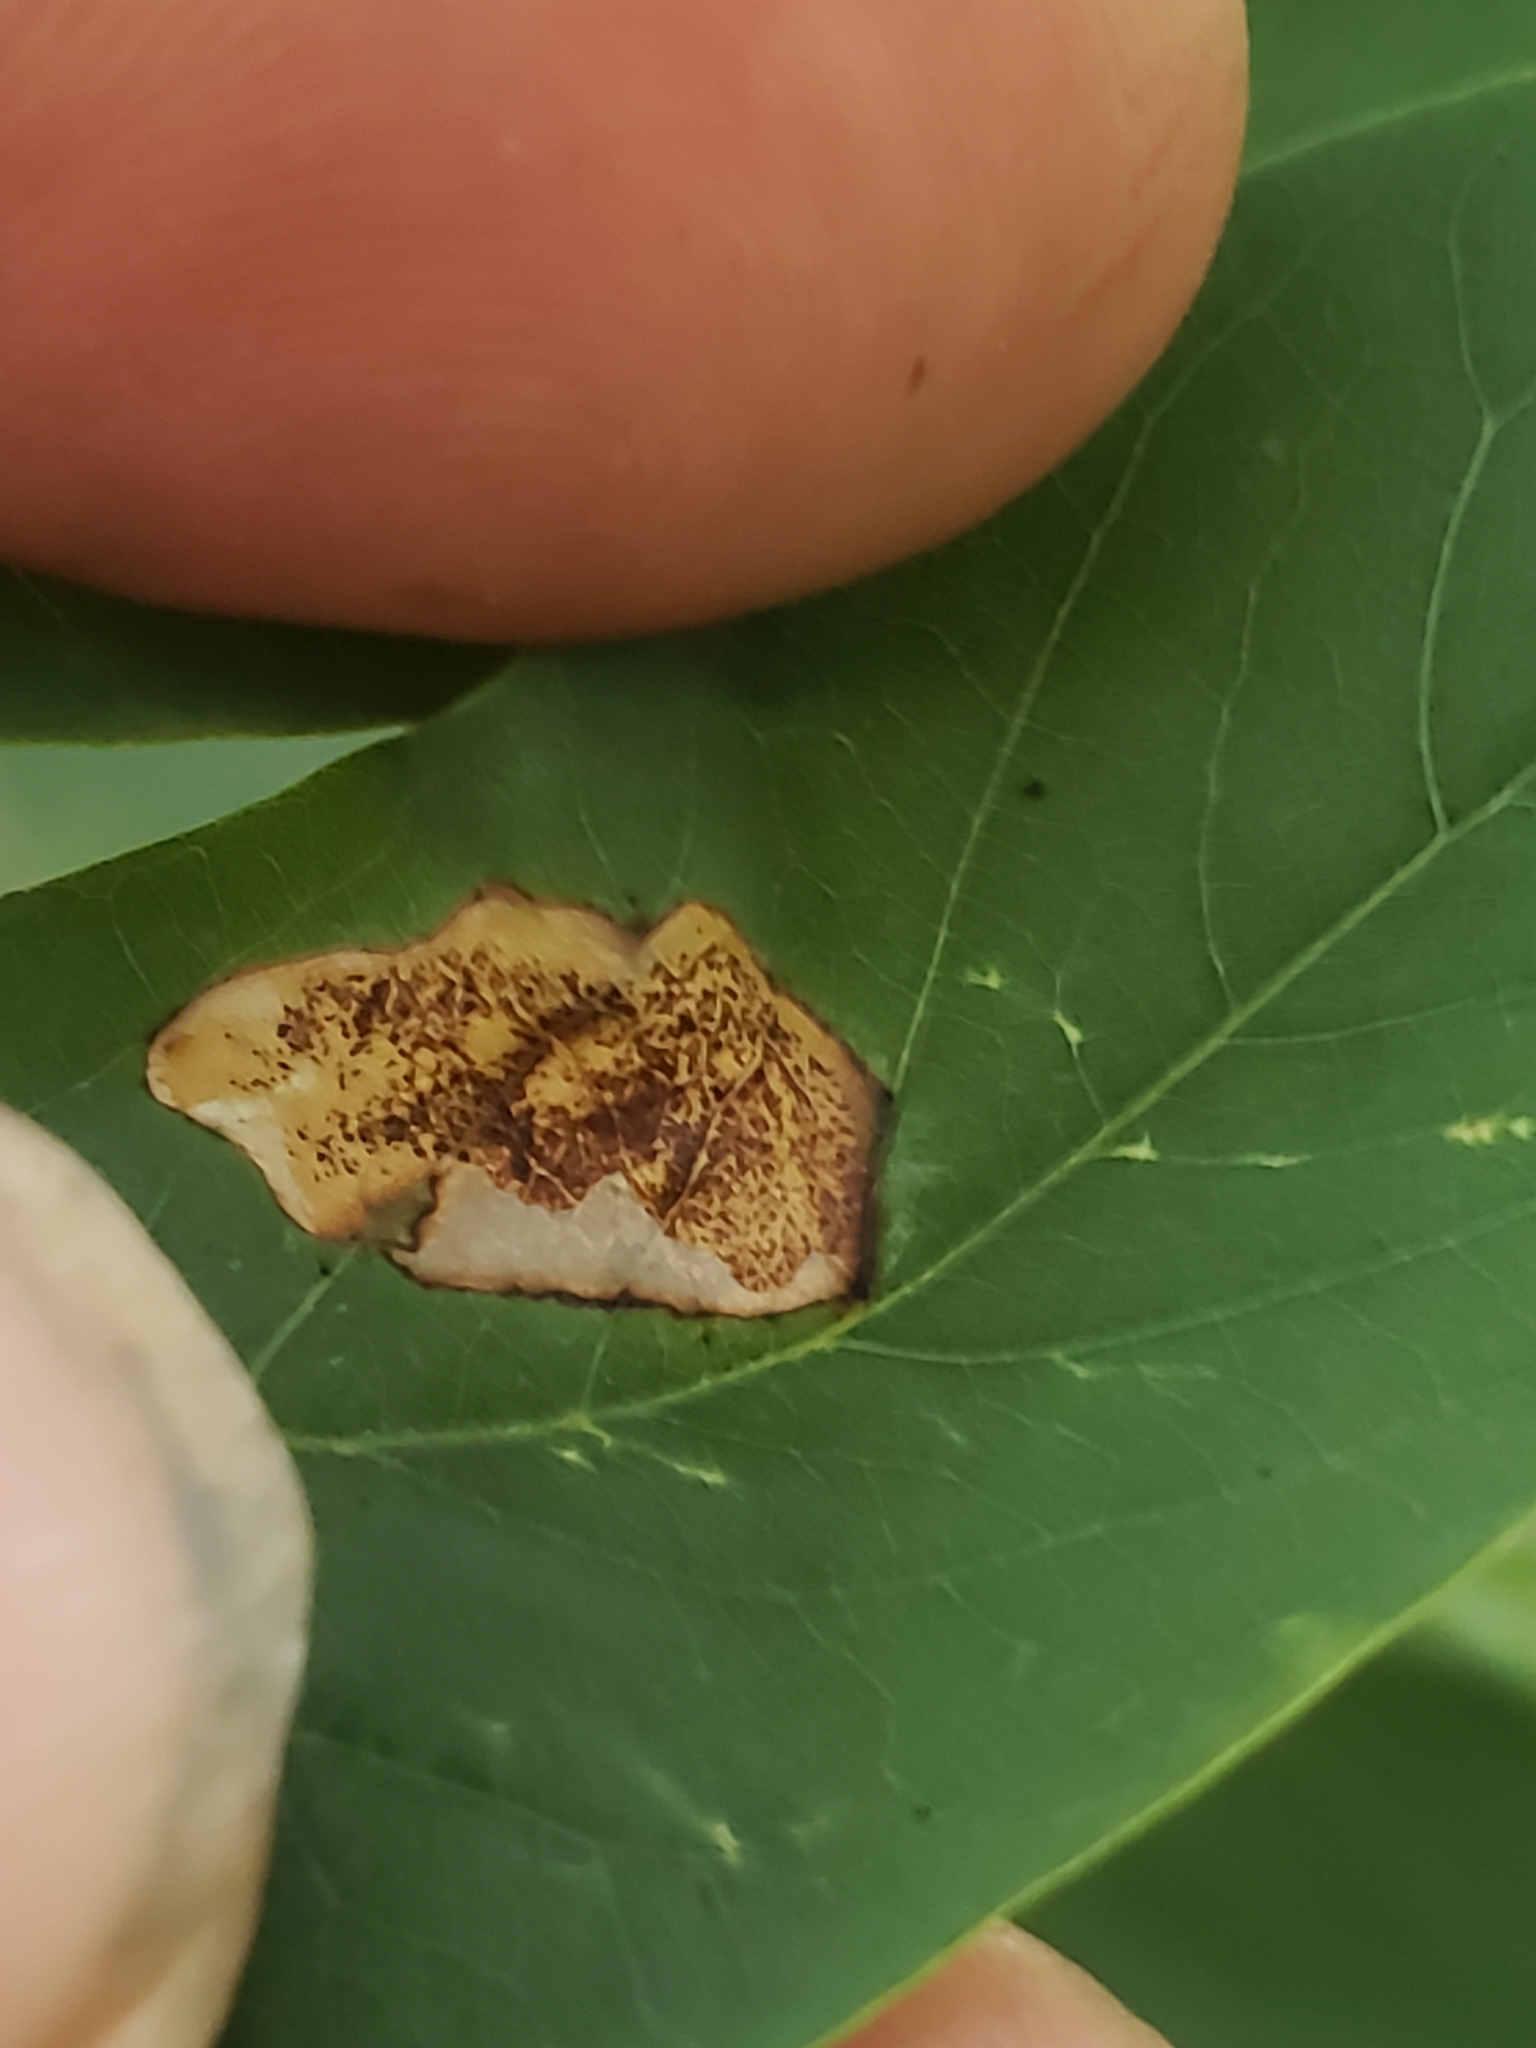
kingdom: Animalia
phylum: Arthropoda
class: Insecta
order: Lepidoptera
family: Gracillariidae
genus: Chrysaster
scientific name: Chrysaster ostensackenella
